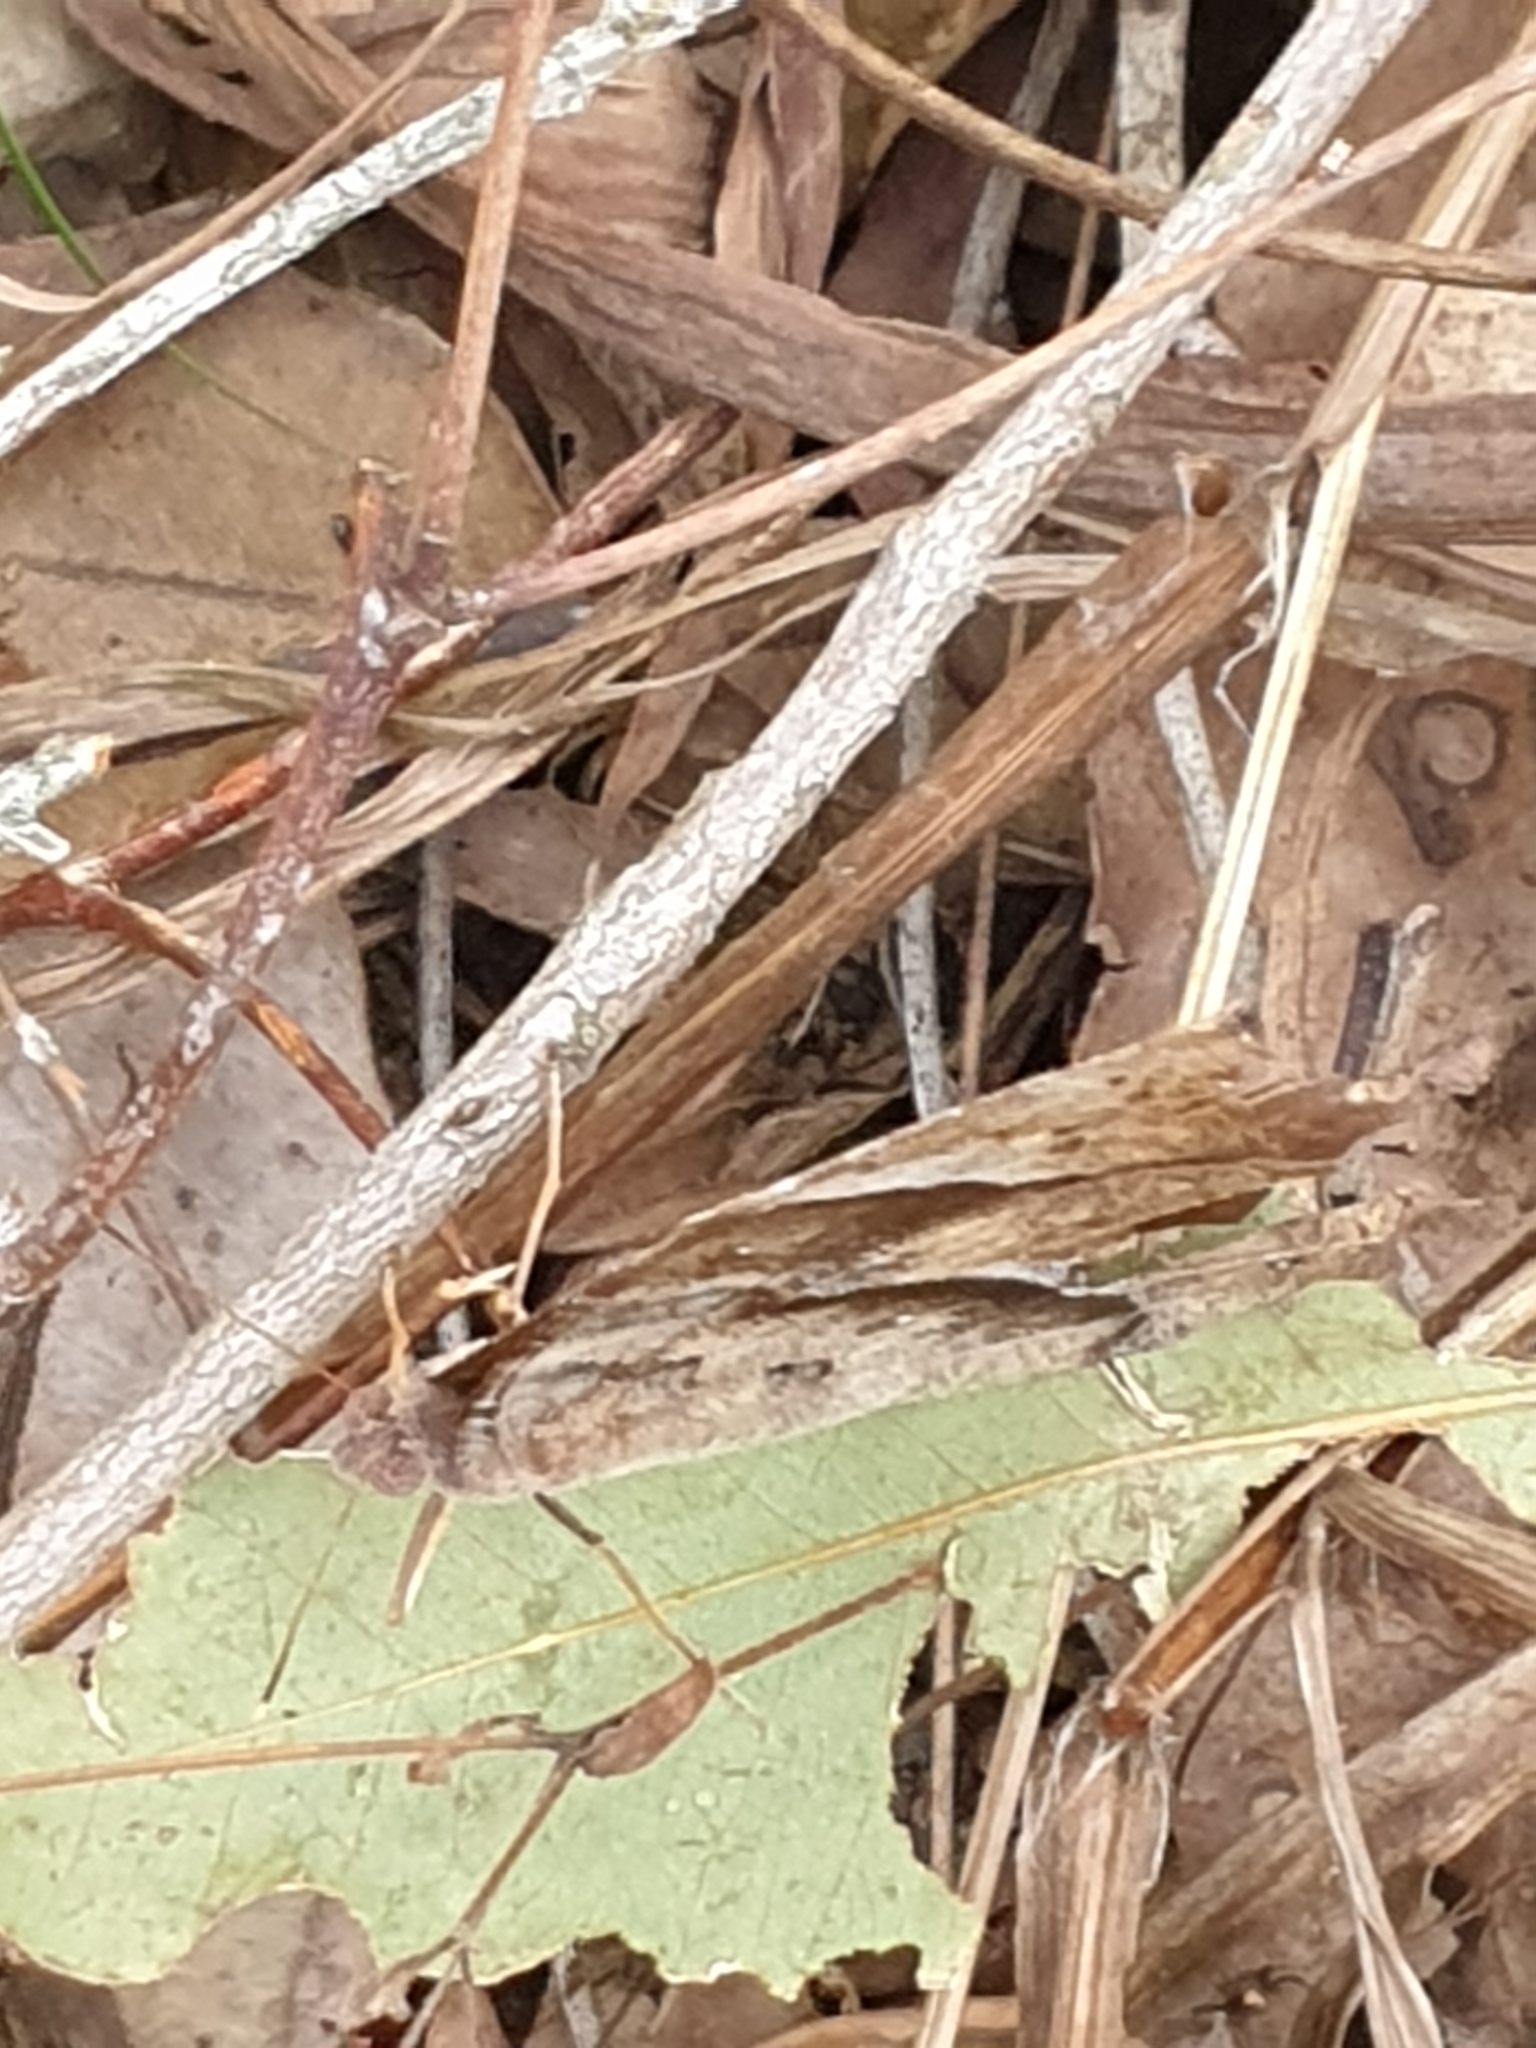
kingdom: Animalia
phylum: Arthropoda
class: Insecta
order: Lepidoptera
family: Nymphalidae
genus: Melanitis
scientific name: Melanitis leda
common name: Twilight brown
